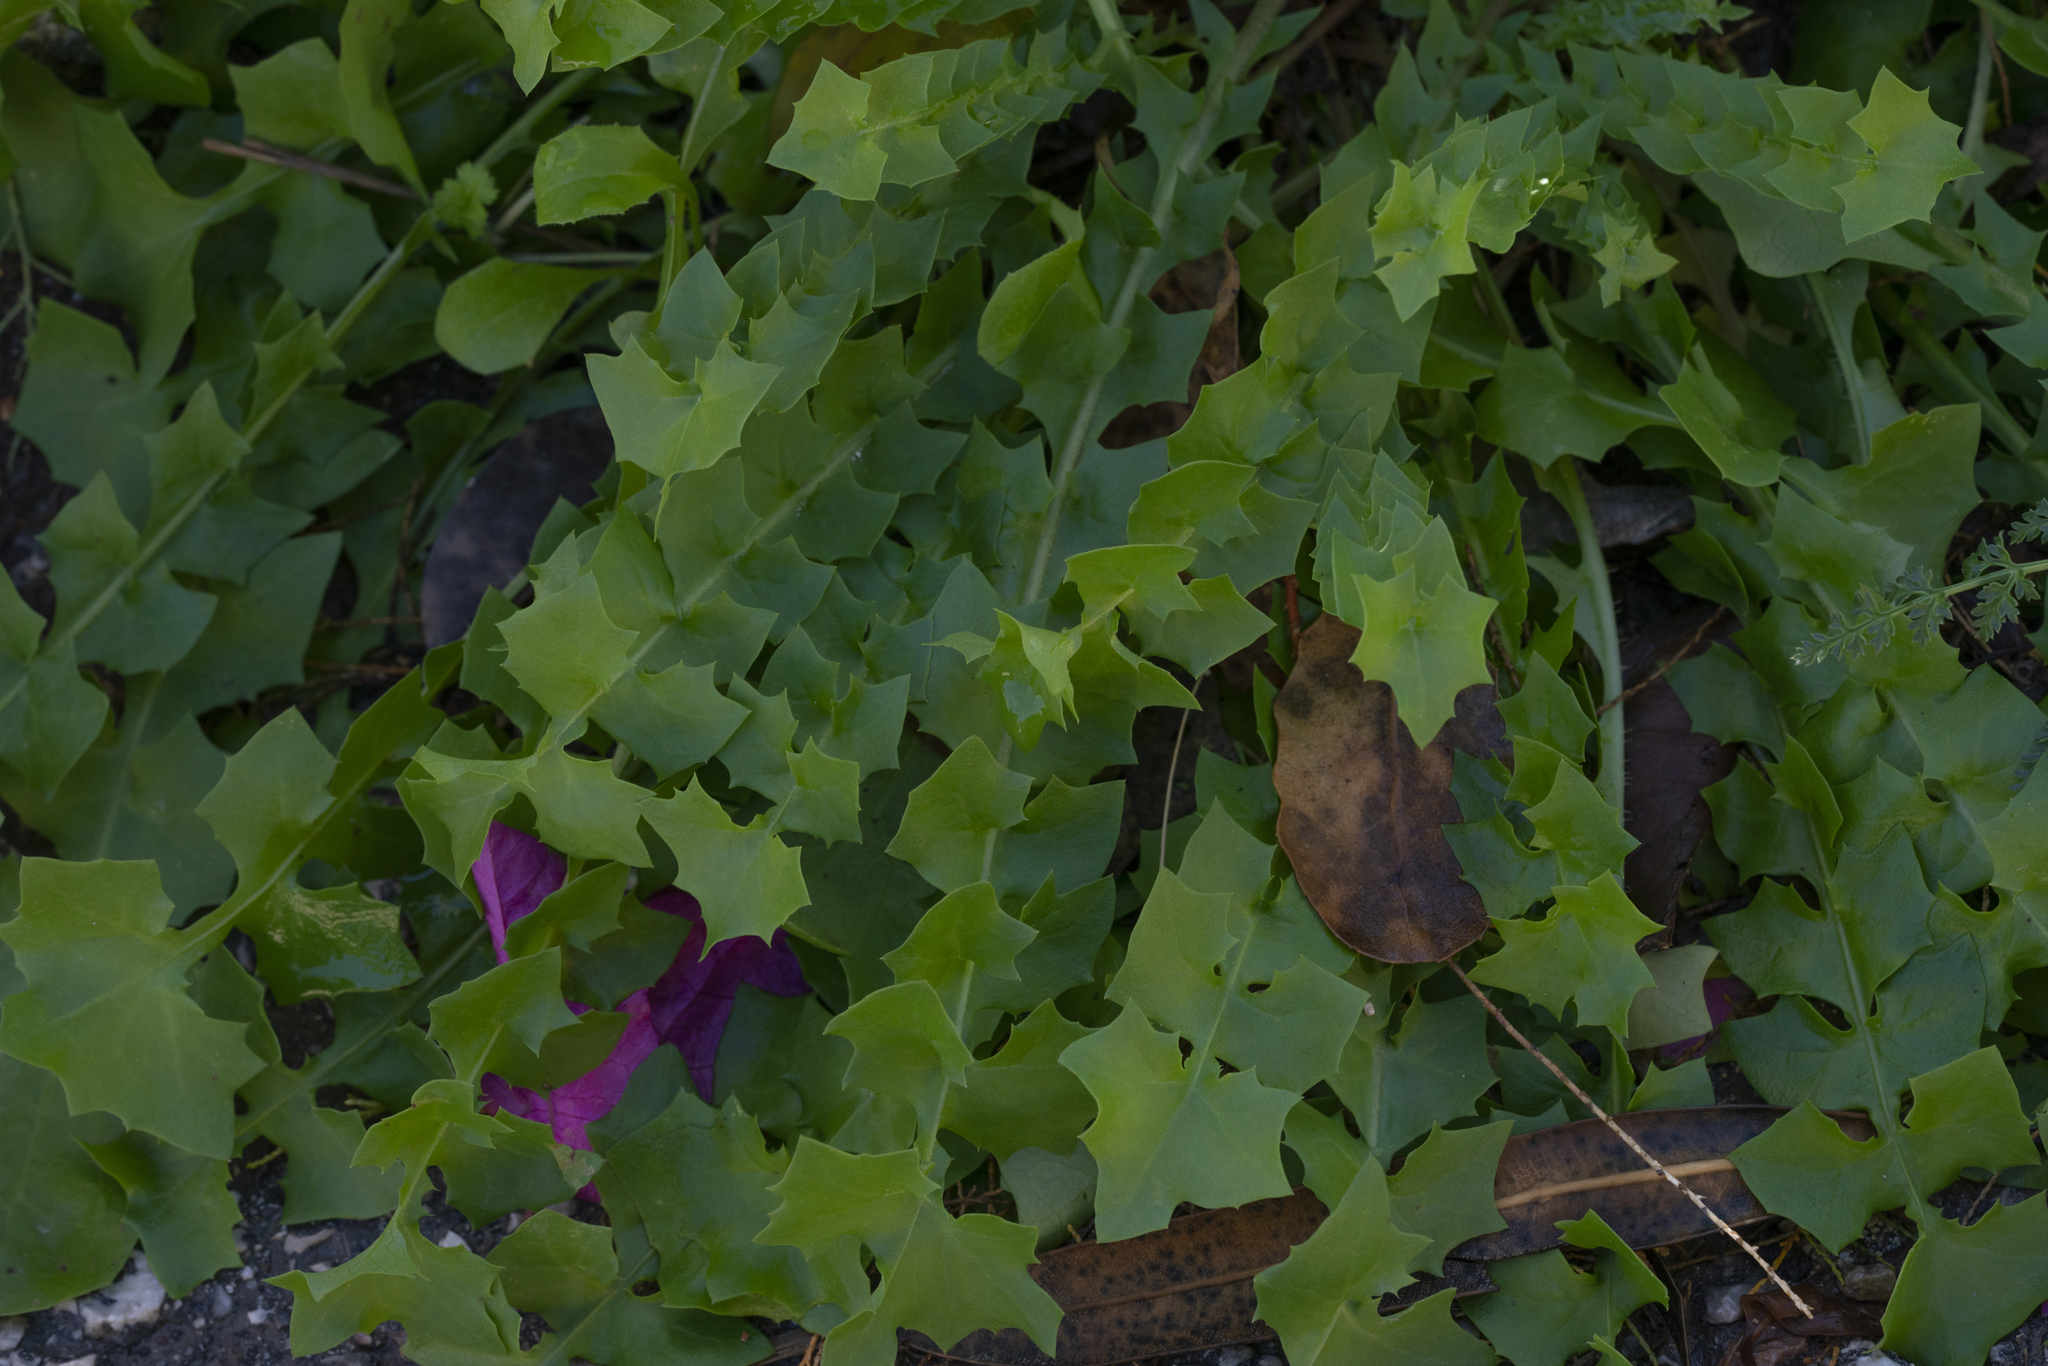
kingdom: Plantae
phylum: Tracheophyta
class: Magnoliopsida
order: Asterales
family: Asteraceae
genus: Hyoseris
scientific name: Hyoseris radiata
